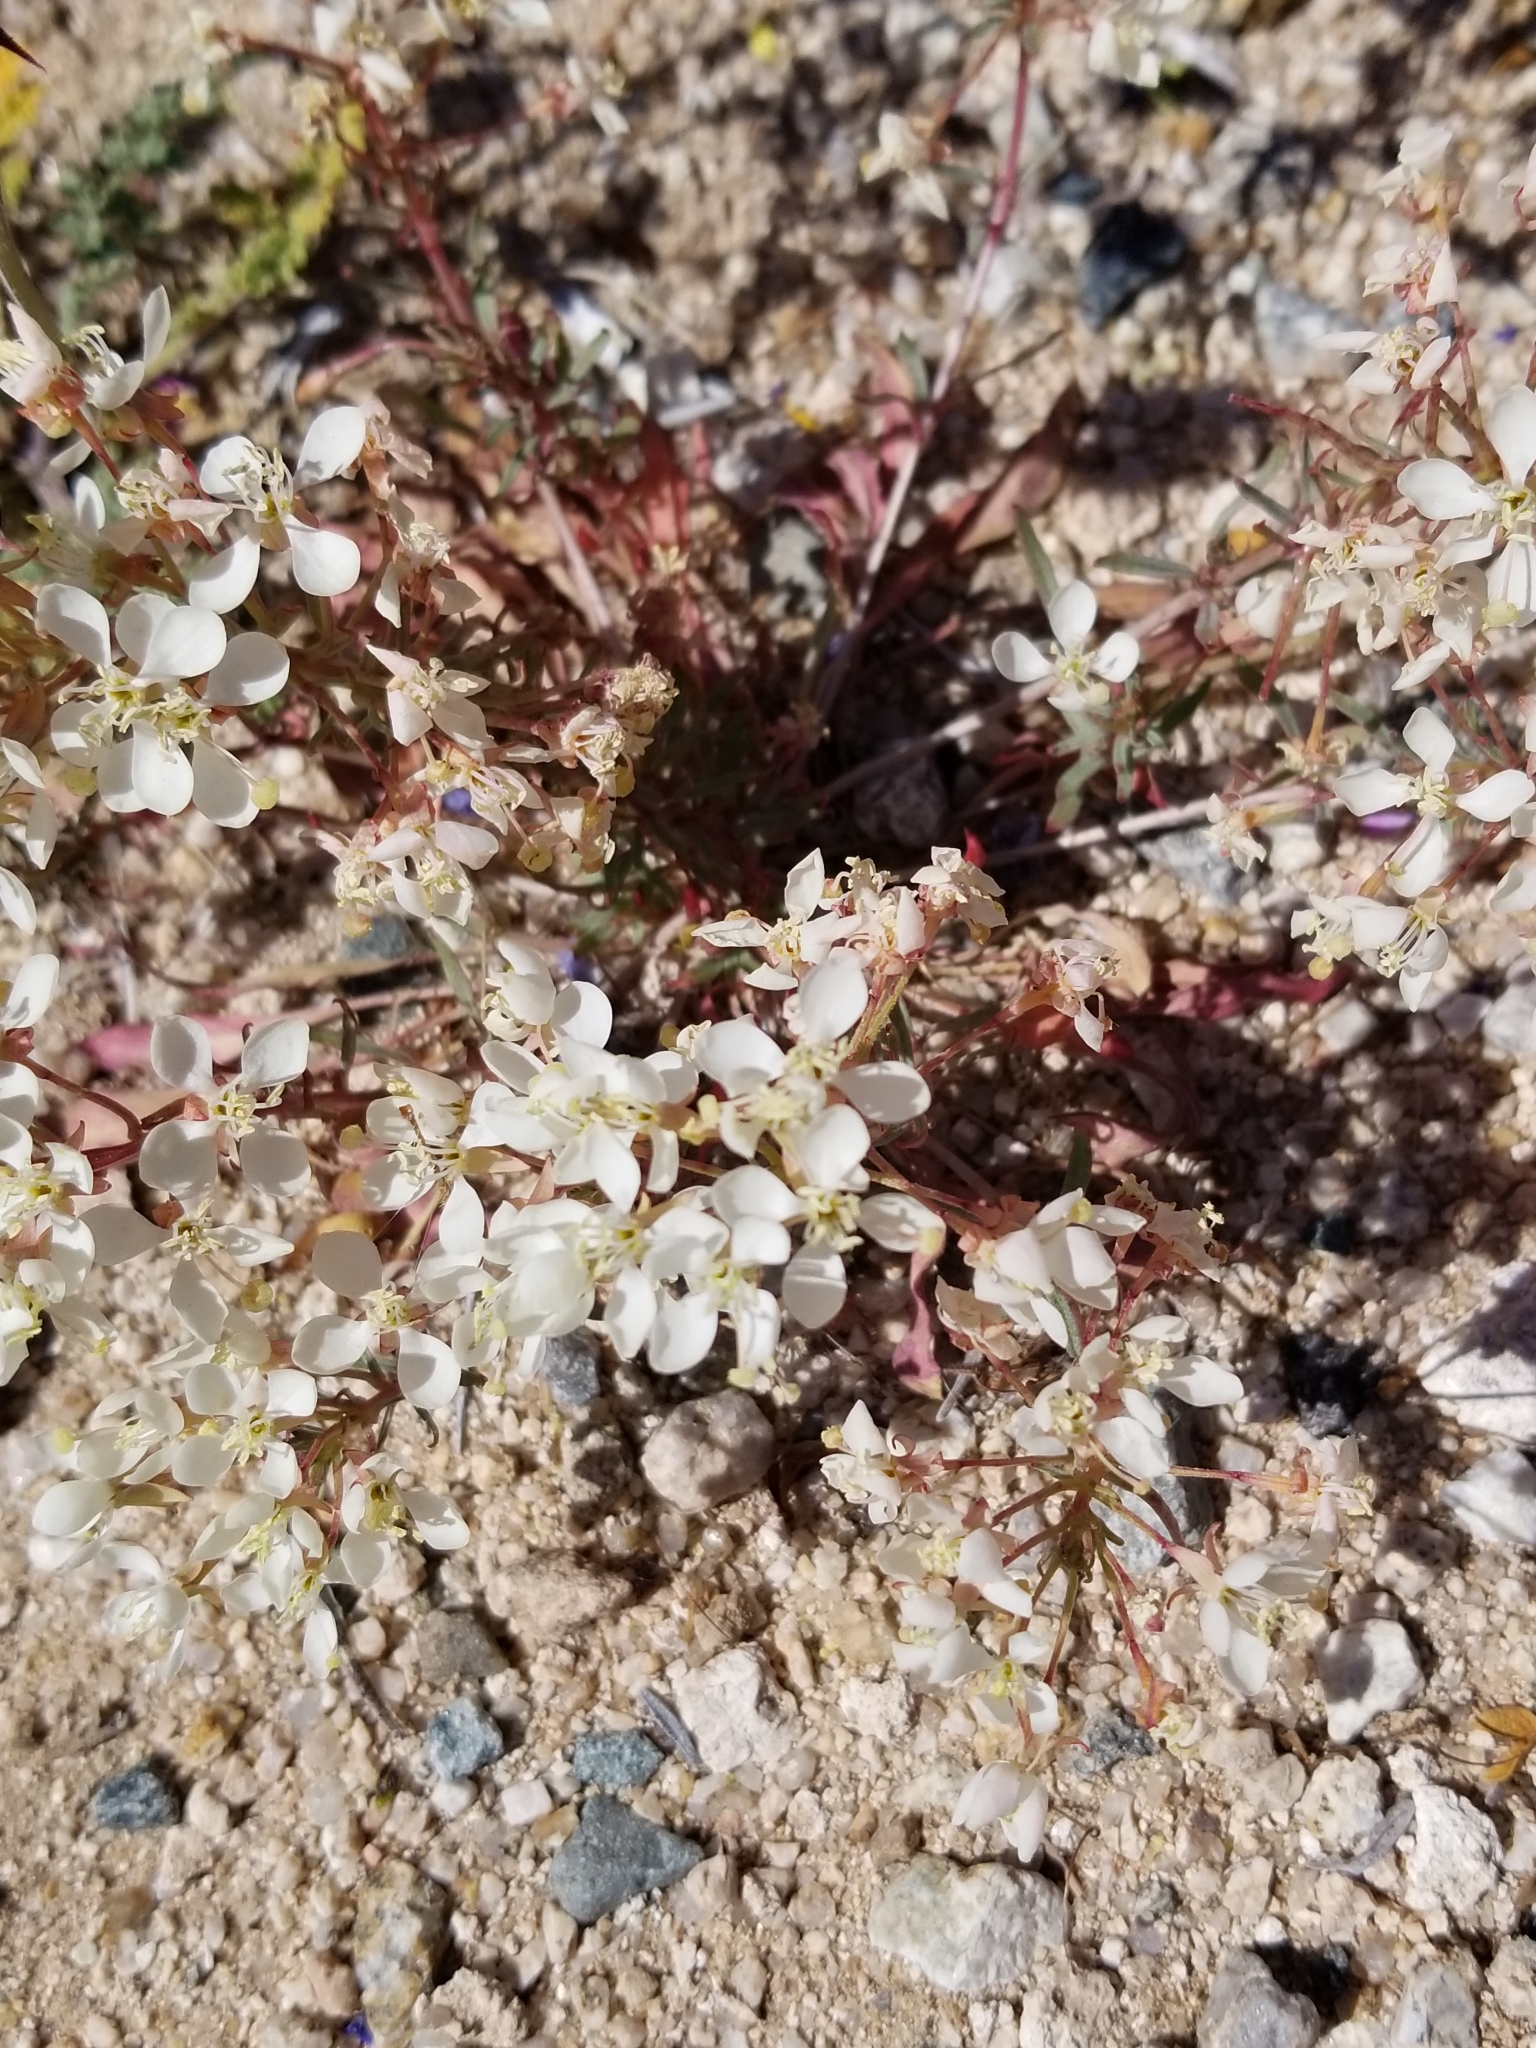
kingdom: Plantae
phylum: Tracheophyta
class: Magnoliopsida
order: Myrtales
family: Onagraceae
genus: Eremothera
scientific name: Eremothera boothii
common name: Booth's evening primrose
